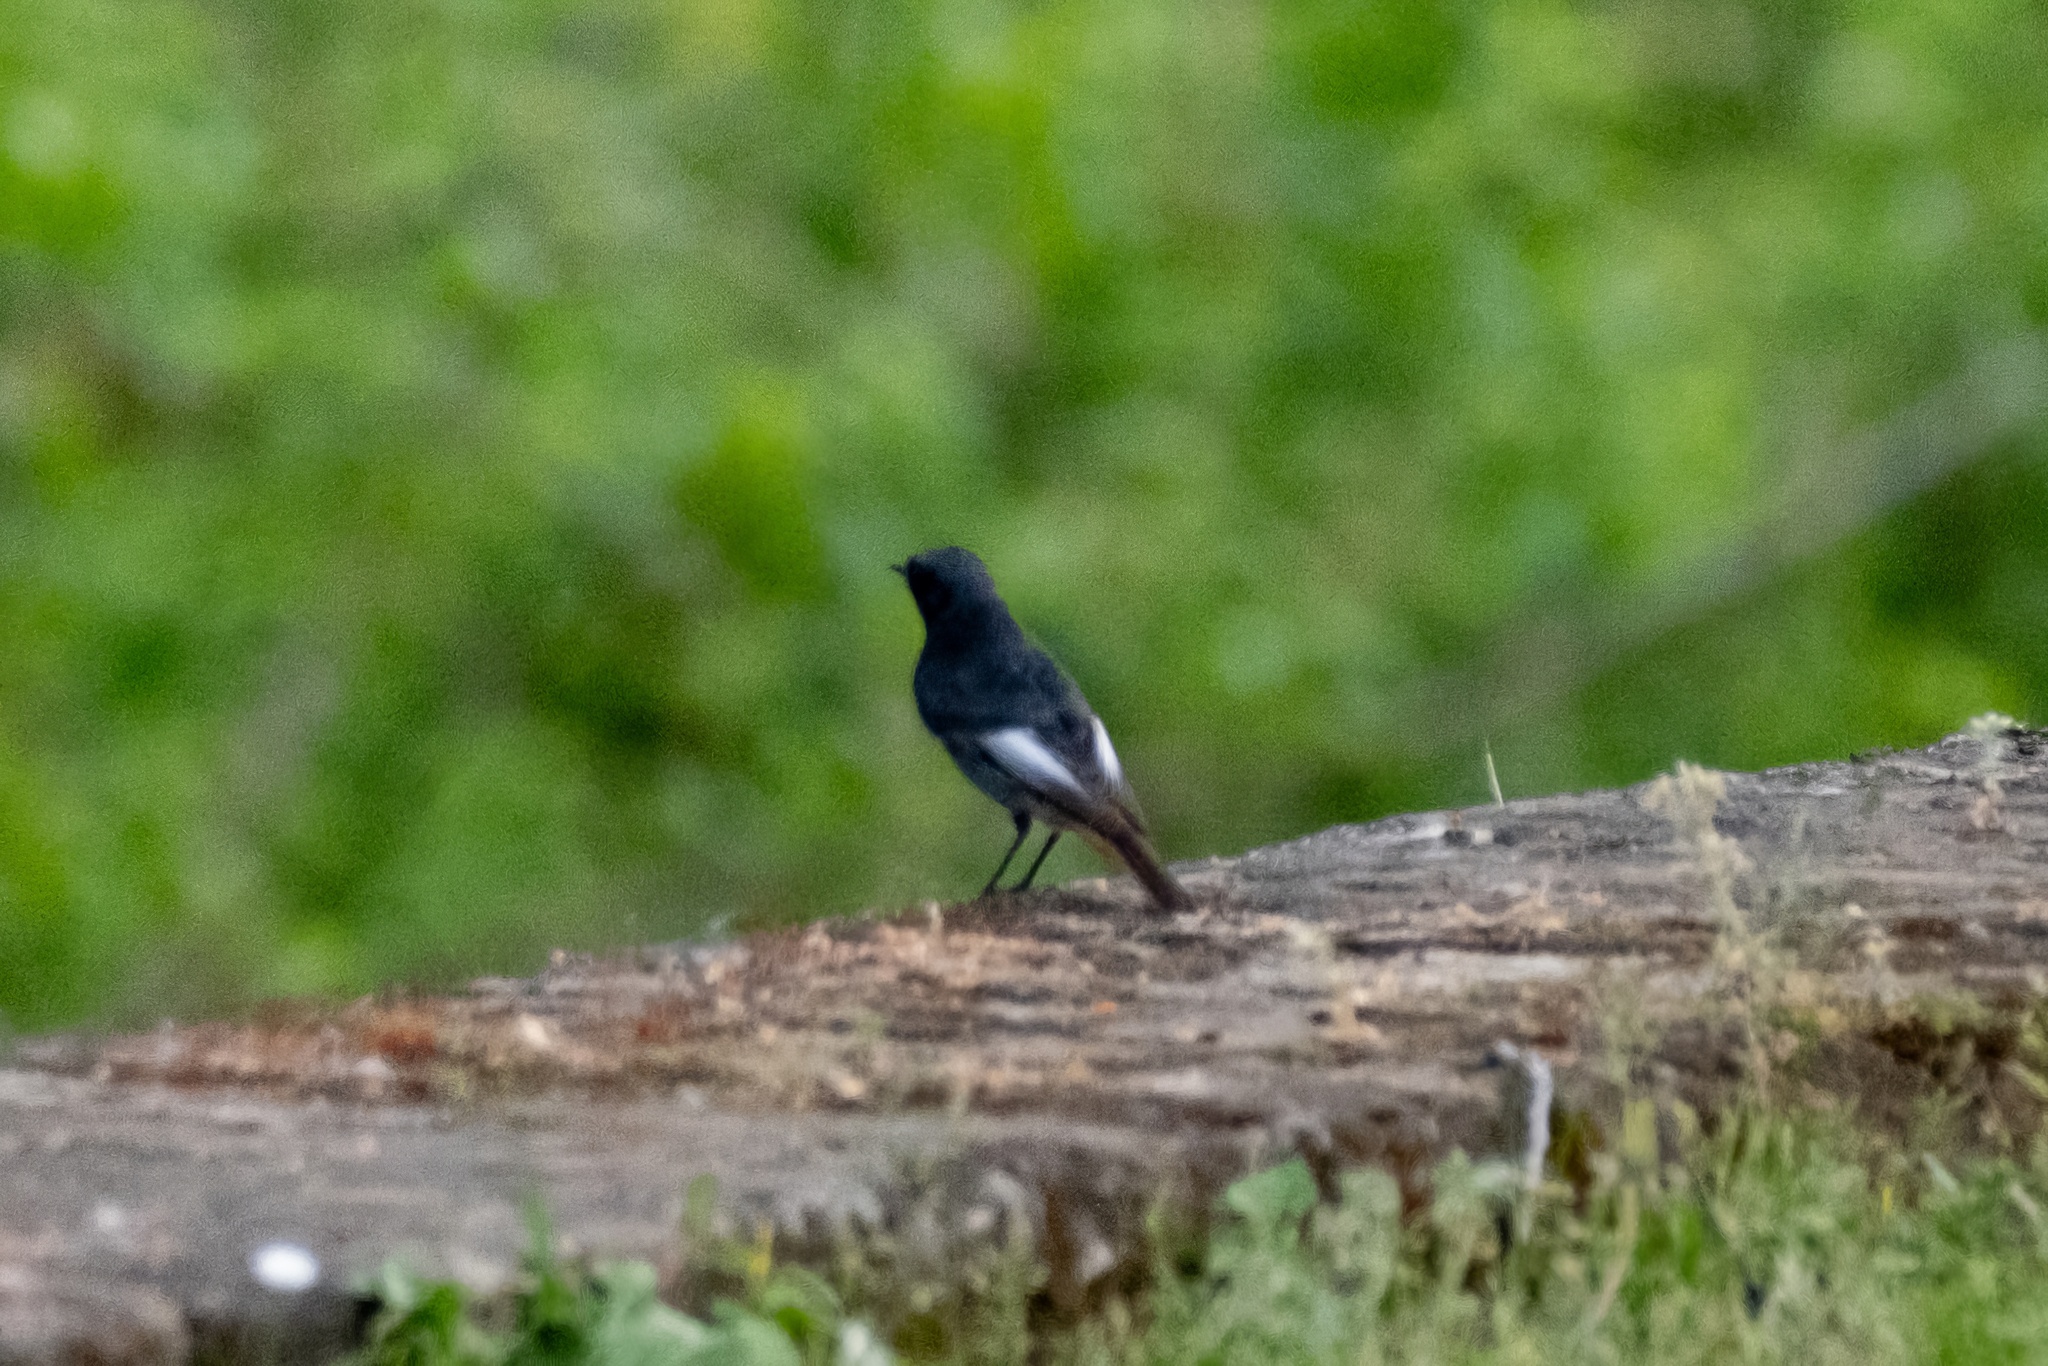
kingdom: Animalia
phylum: Chordata
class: Aves
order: Passeriformes
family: Muscicapidae
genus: Phoenicurus
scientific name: Phoenicurus ochruros
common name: Black redstart
